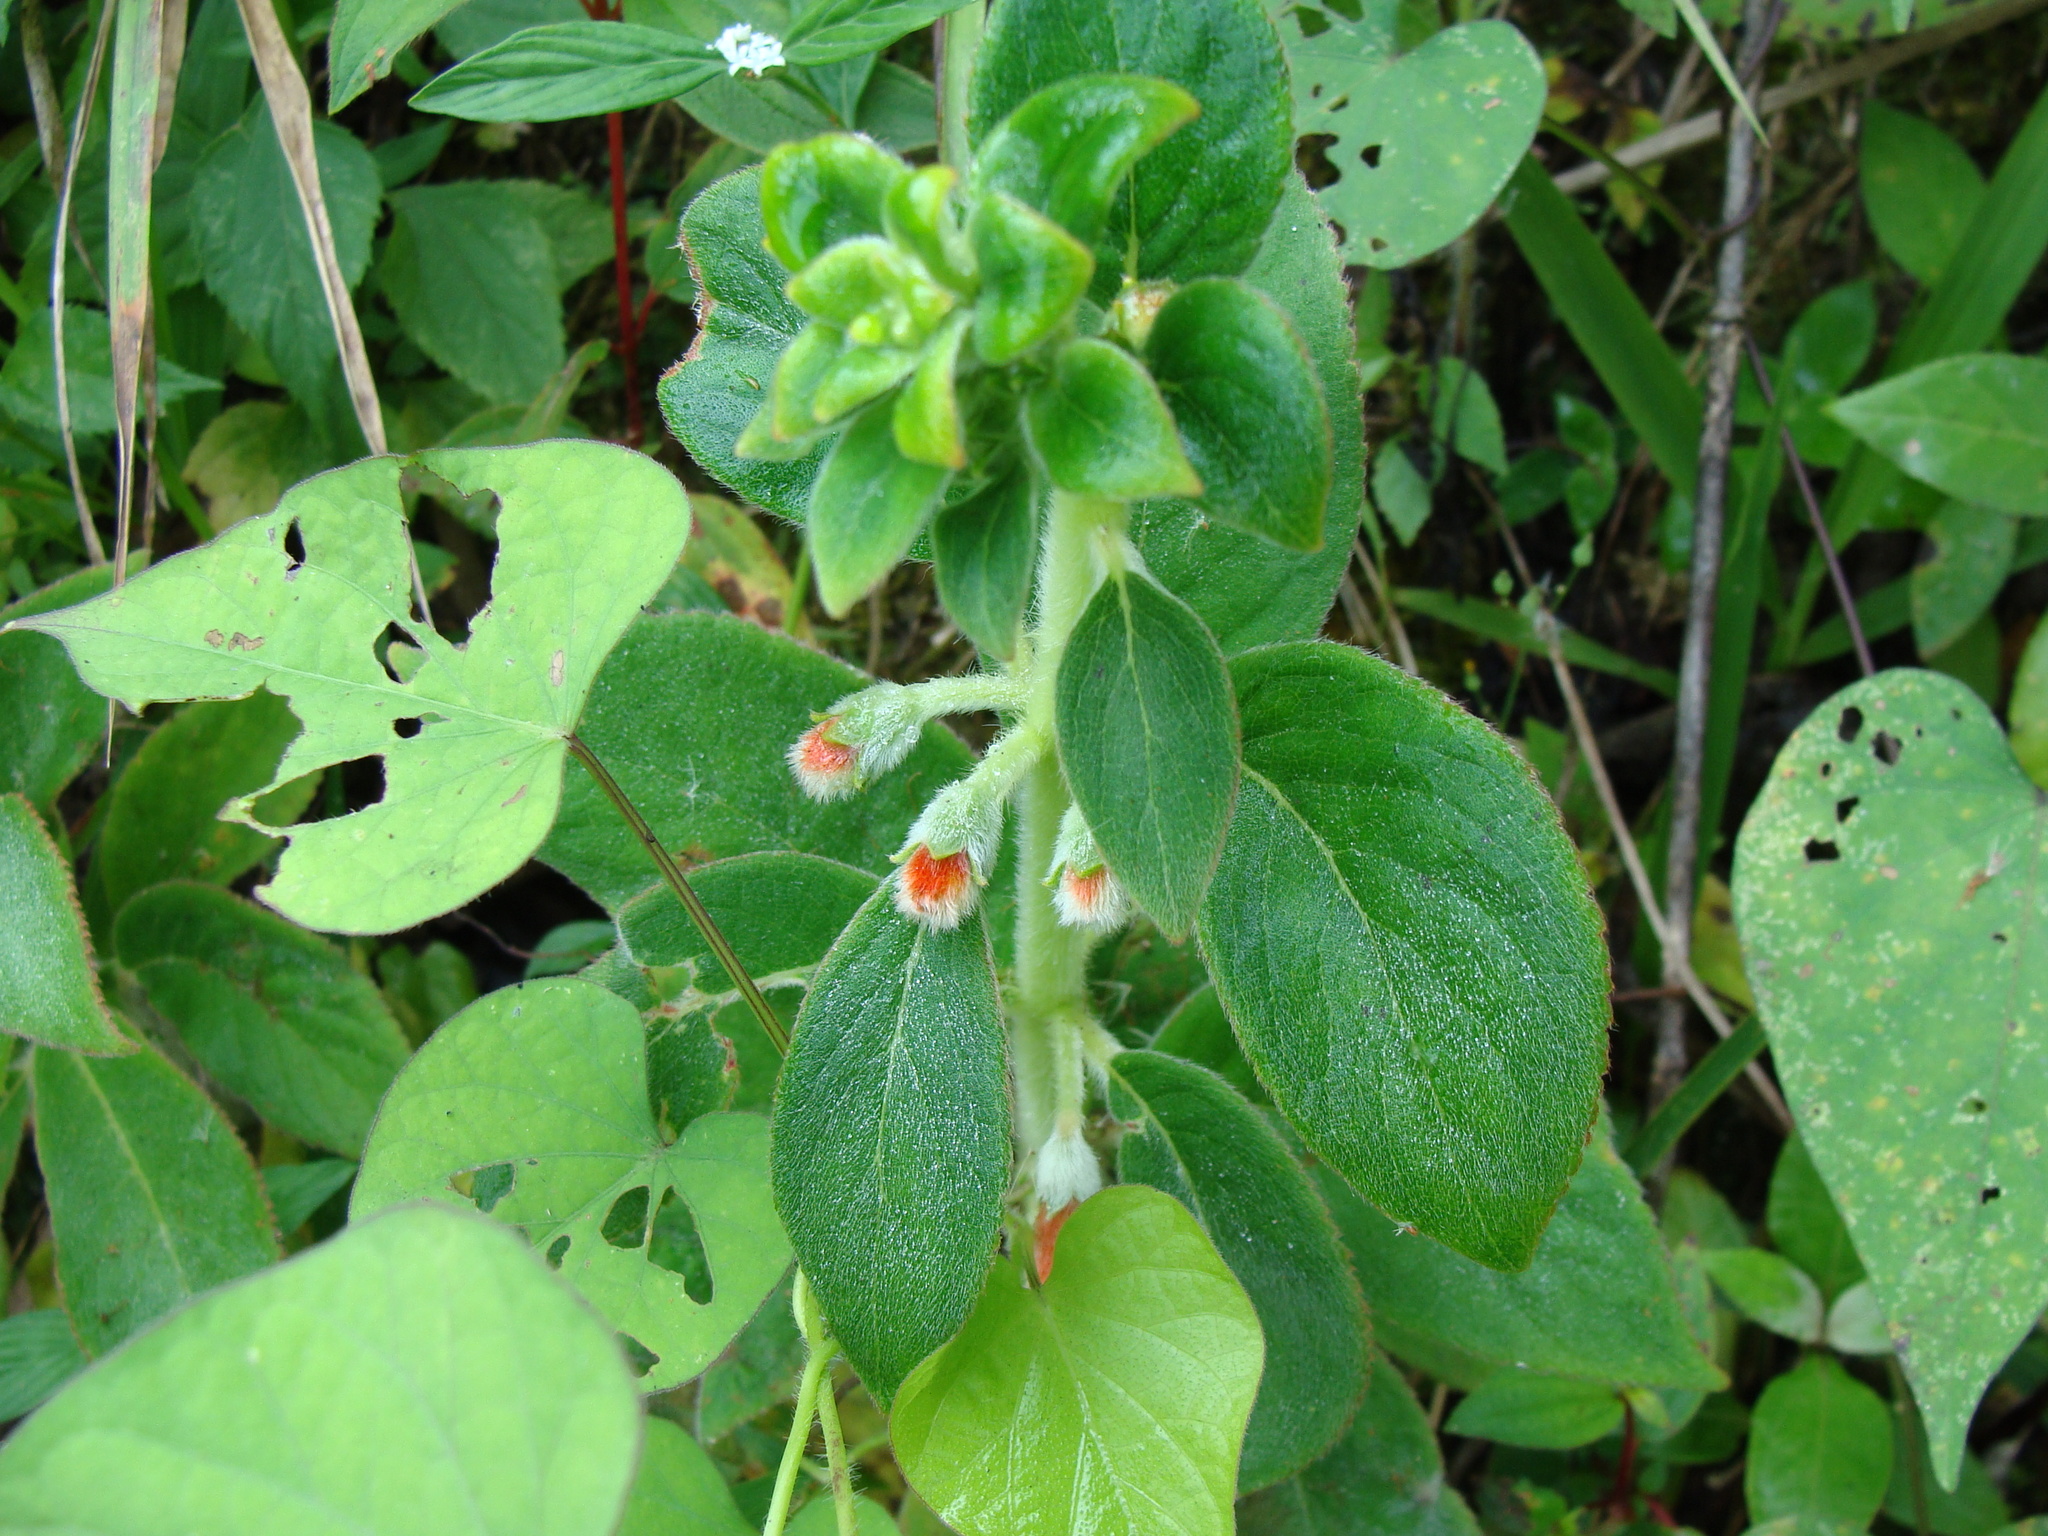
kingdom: Plantae
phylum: Tracheophyta
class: Magnoliopsida
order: Lamiales
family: Gesneriaceae
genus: Kohleria
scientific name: Kohleria spicata
